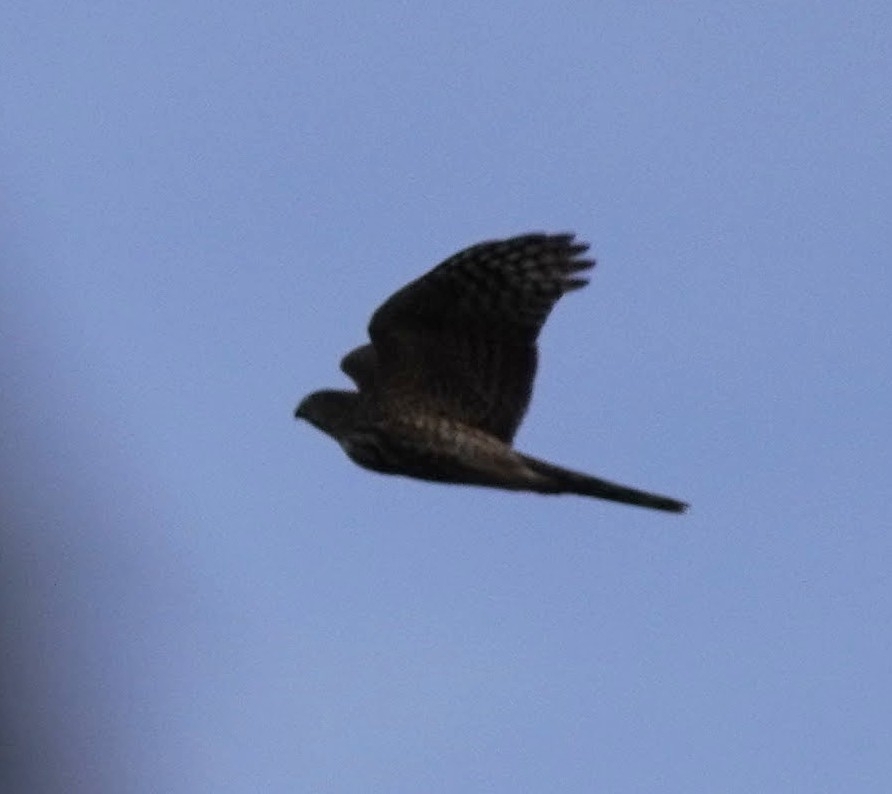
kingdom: Animalia
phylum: Chordata
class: Aves
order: Accipitriformes
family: Accipitridae
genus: Accipiter
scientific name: Accipiter striatus
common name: Sharp-shinned hawk
